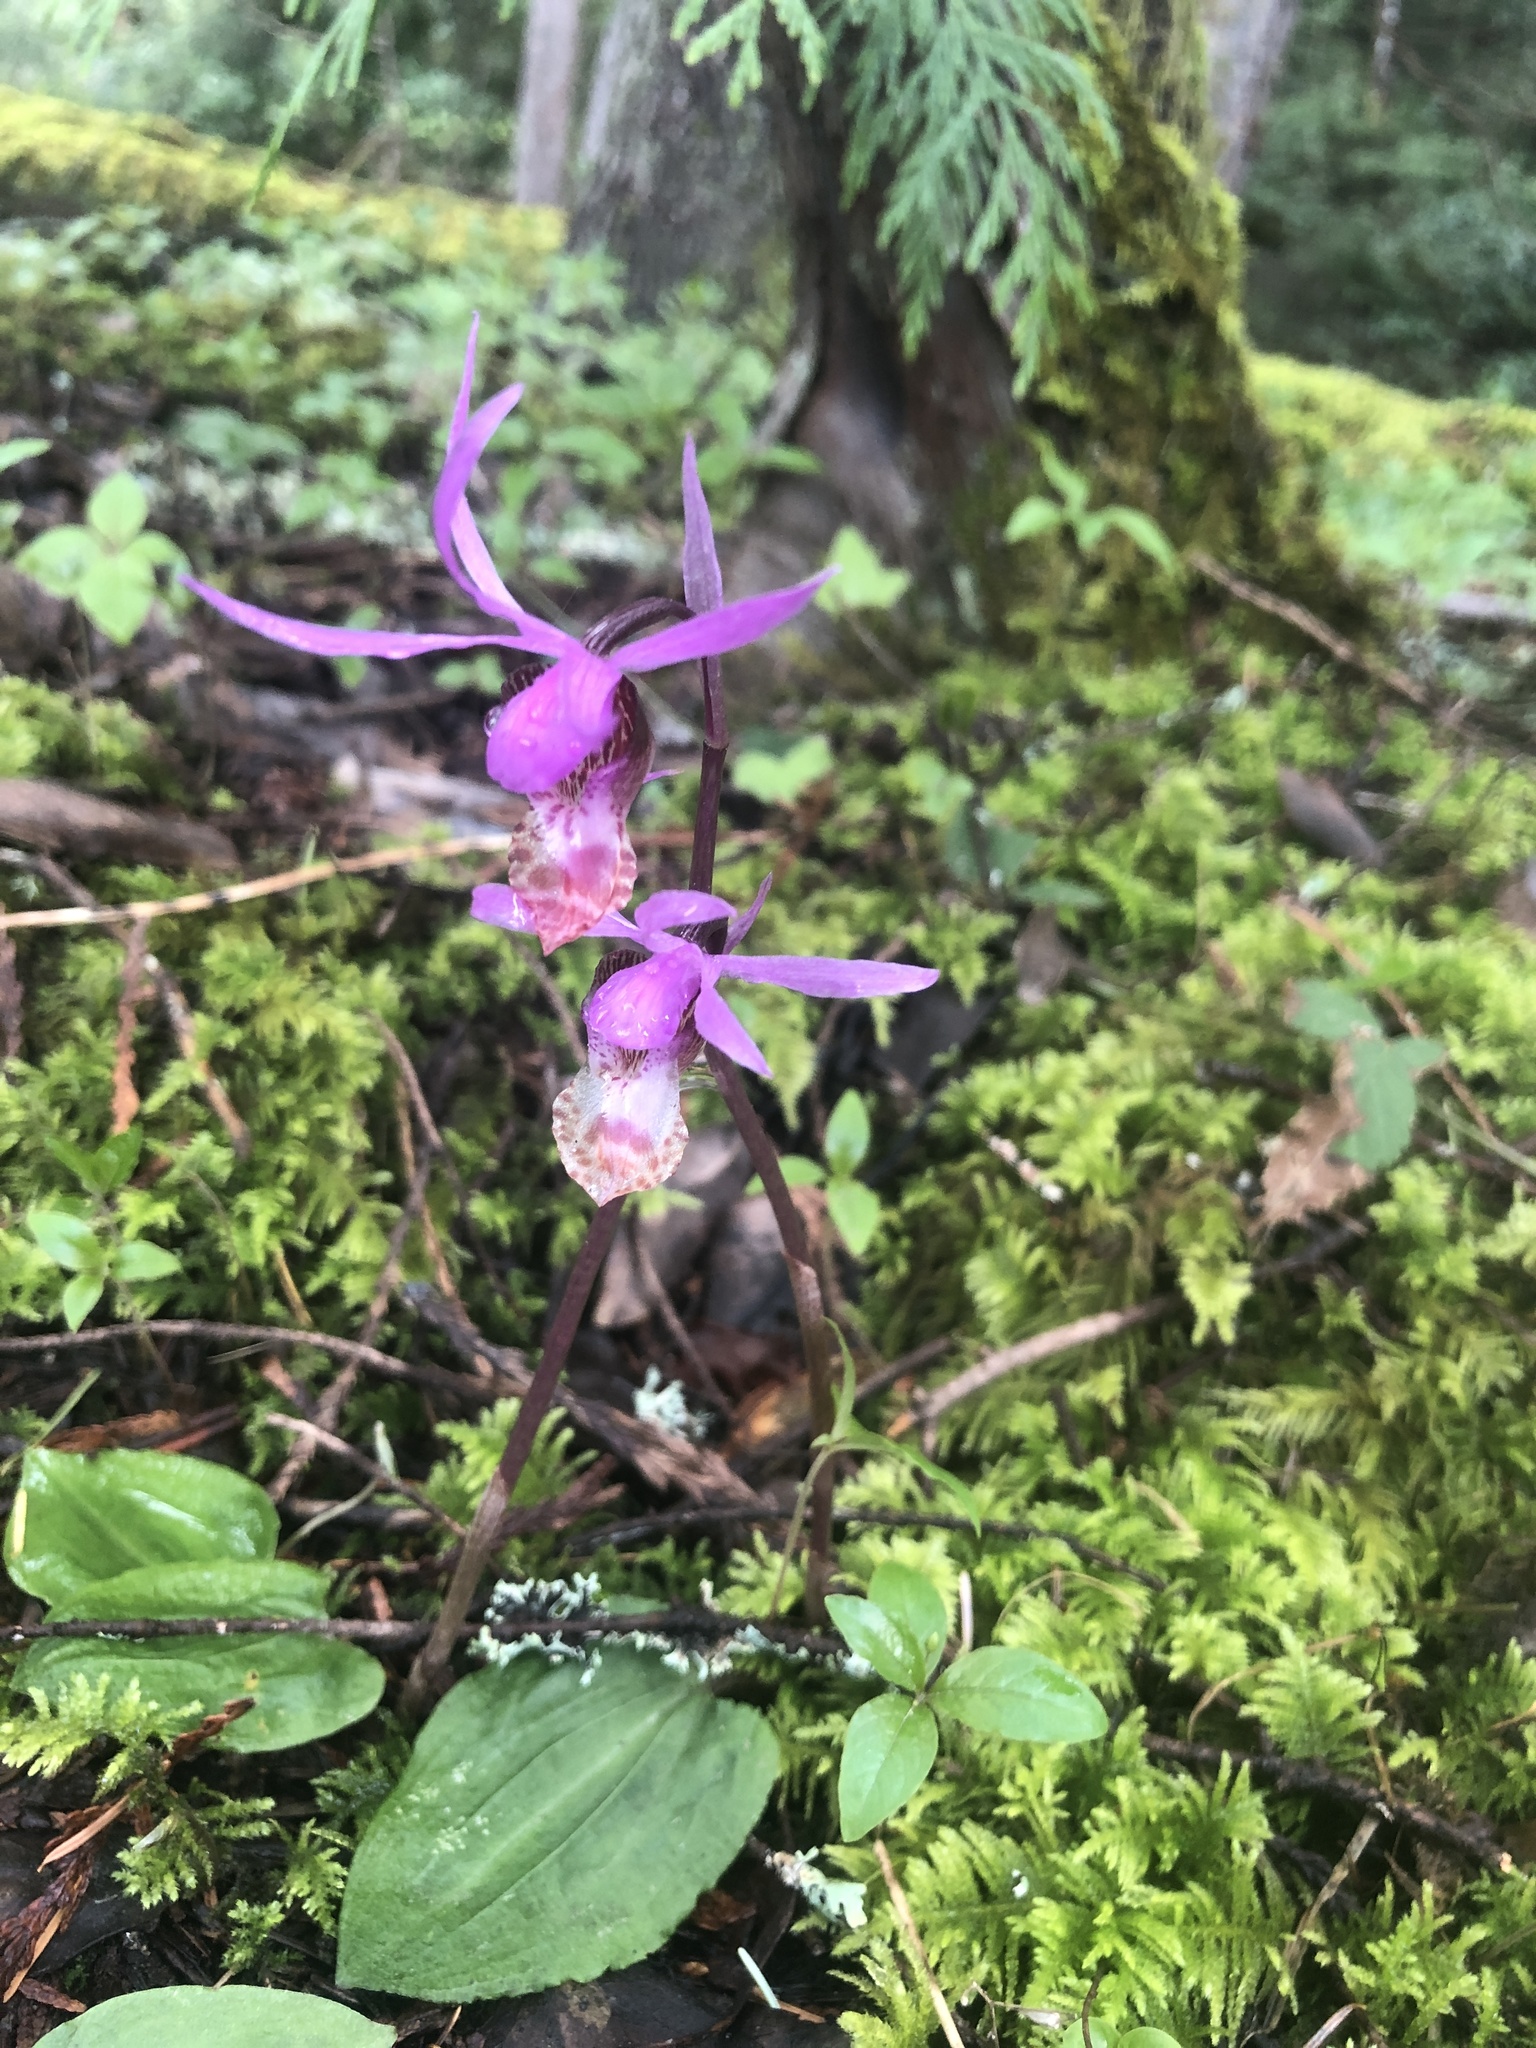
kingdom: Plantae
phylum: Tracheophyta
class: Liliopsida
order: Asparagales
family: Orchidaceae
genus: Calypso
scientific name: Calypso bulbosa
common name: Calypso
